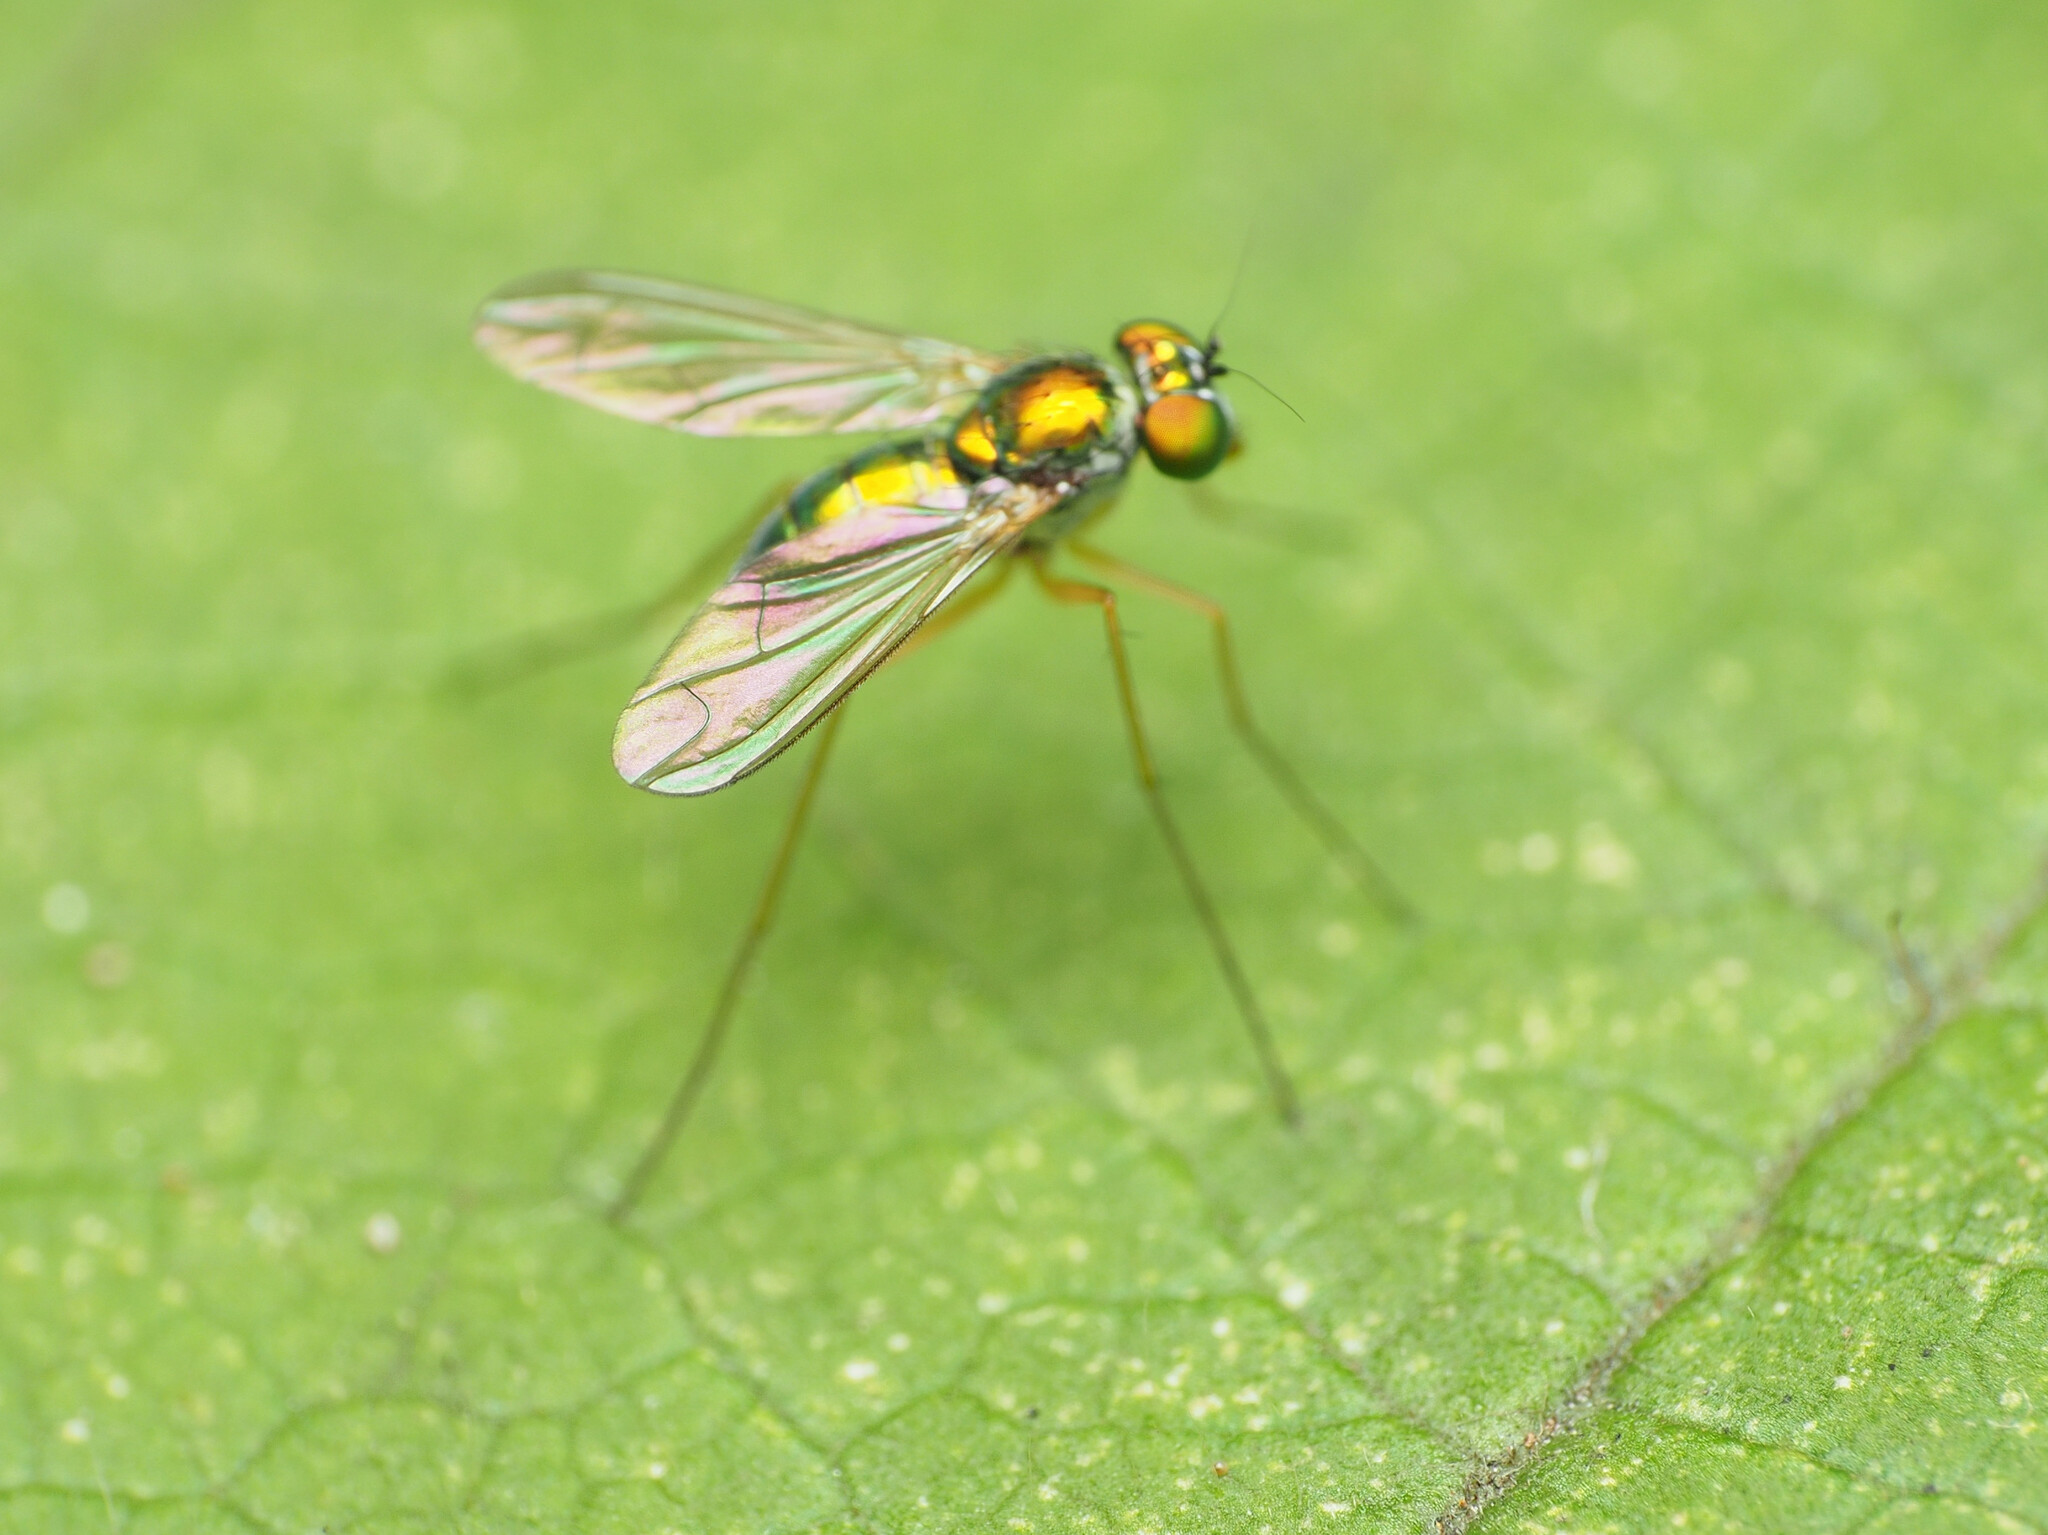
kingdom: Animalia
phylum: Arthropoda
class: Insecta
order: Diptera
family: Dolichopodidae
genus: Amblypsilopus
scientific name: Amblypsilopus scintillans
